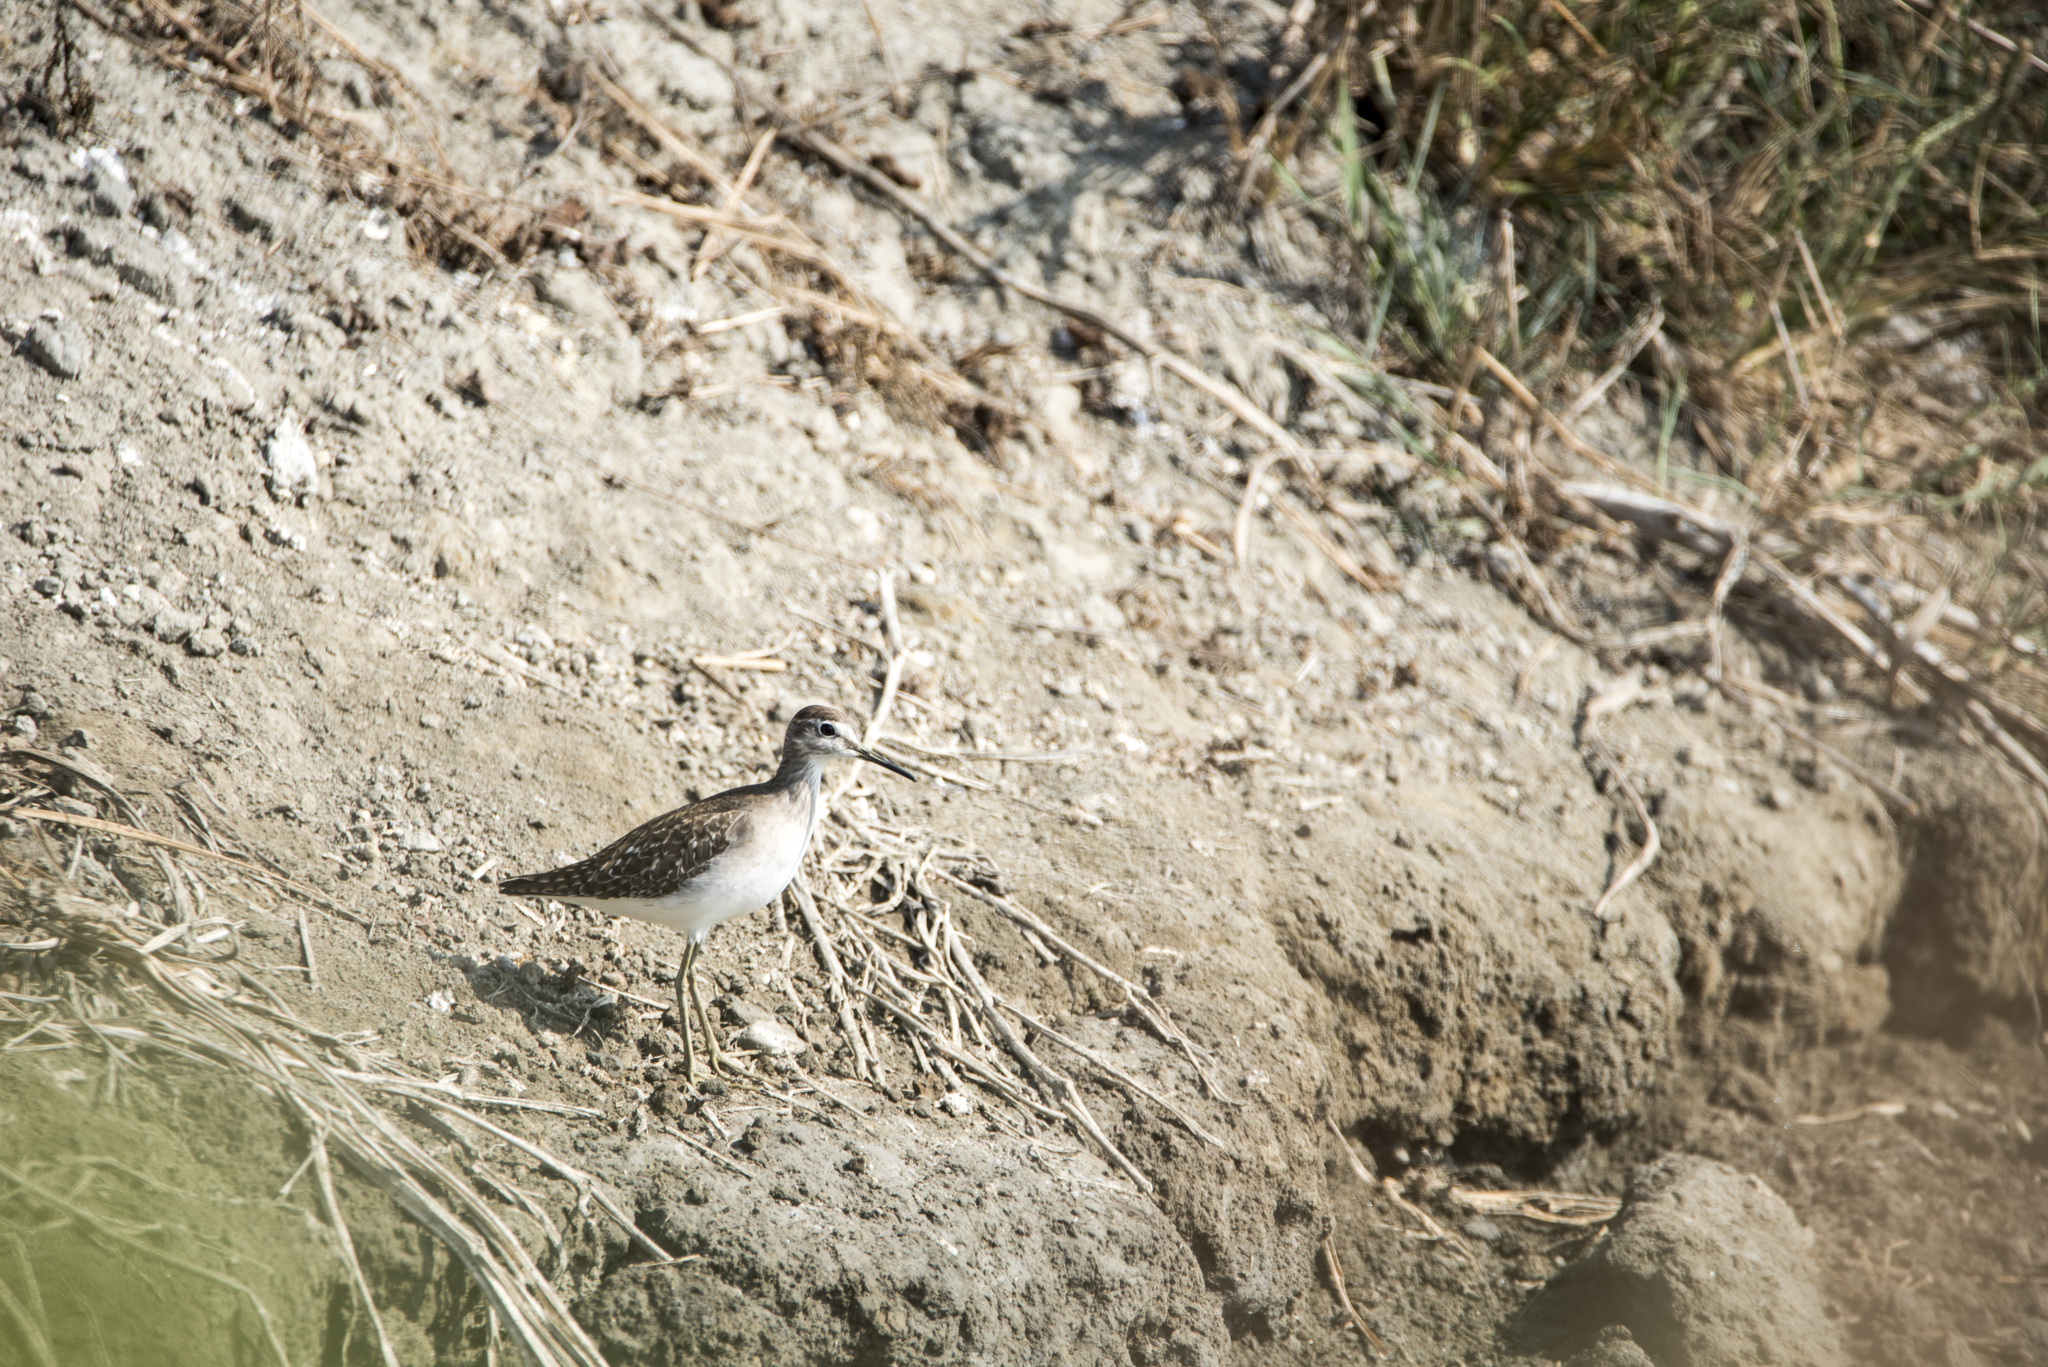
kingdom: Animalia
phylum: Chordata
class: Aves
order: Charadriiformes
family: Scolopacidae
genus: Tringa
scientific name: Tringa glareola
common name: Wood sandpiper
